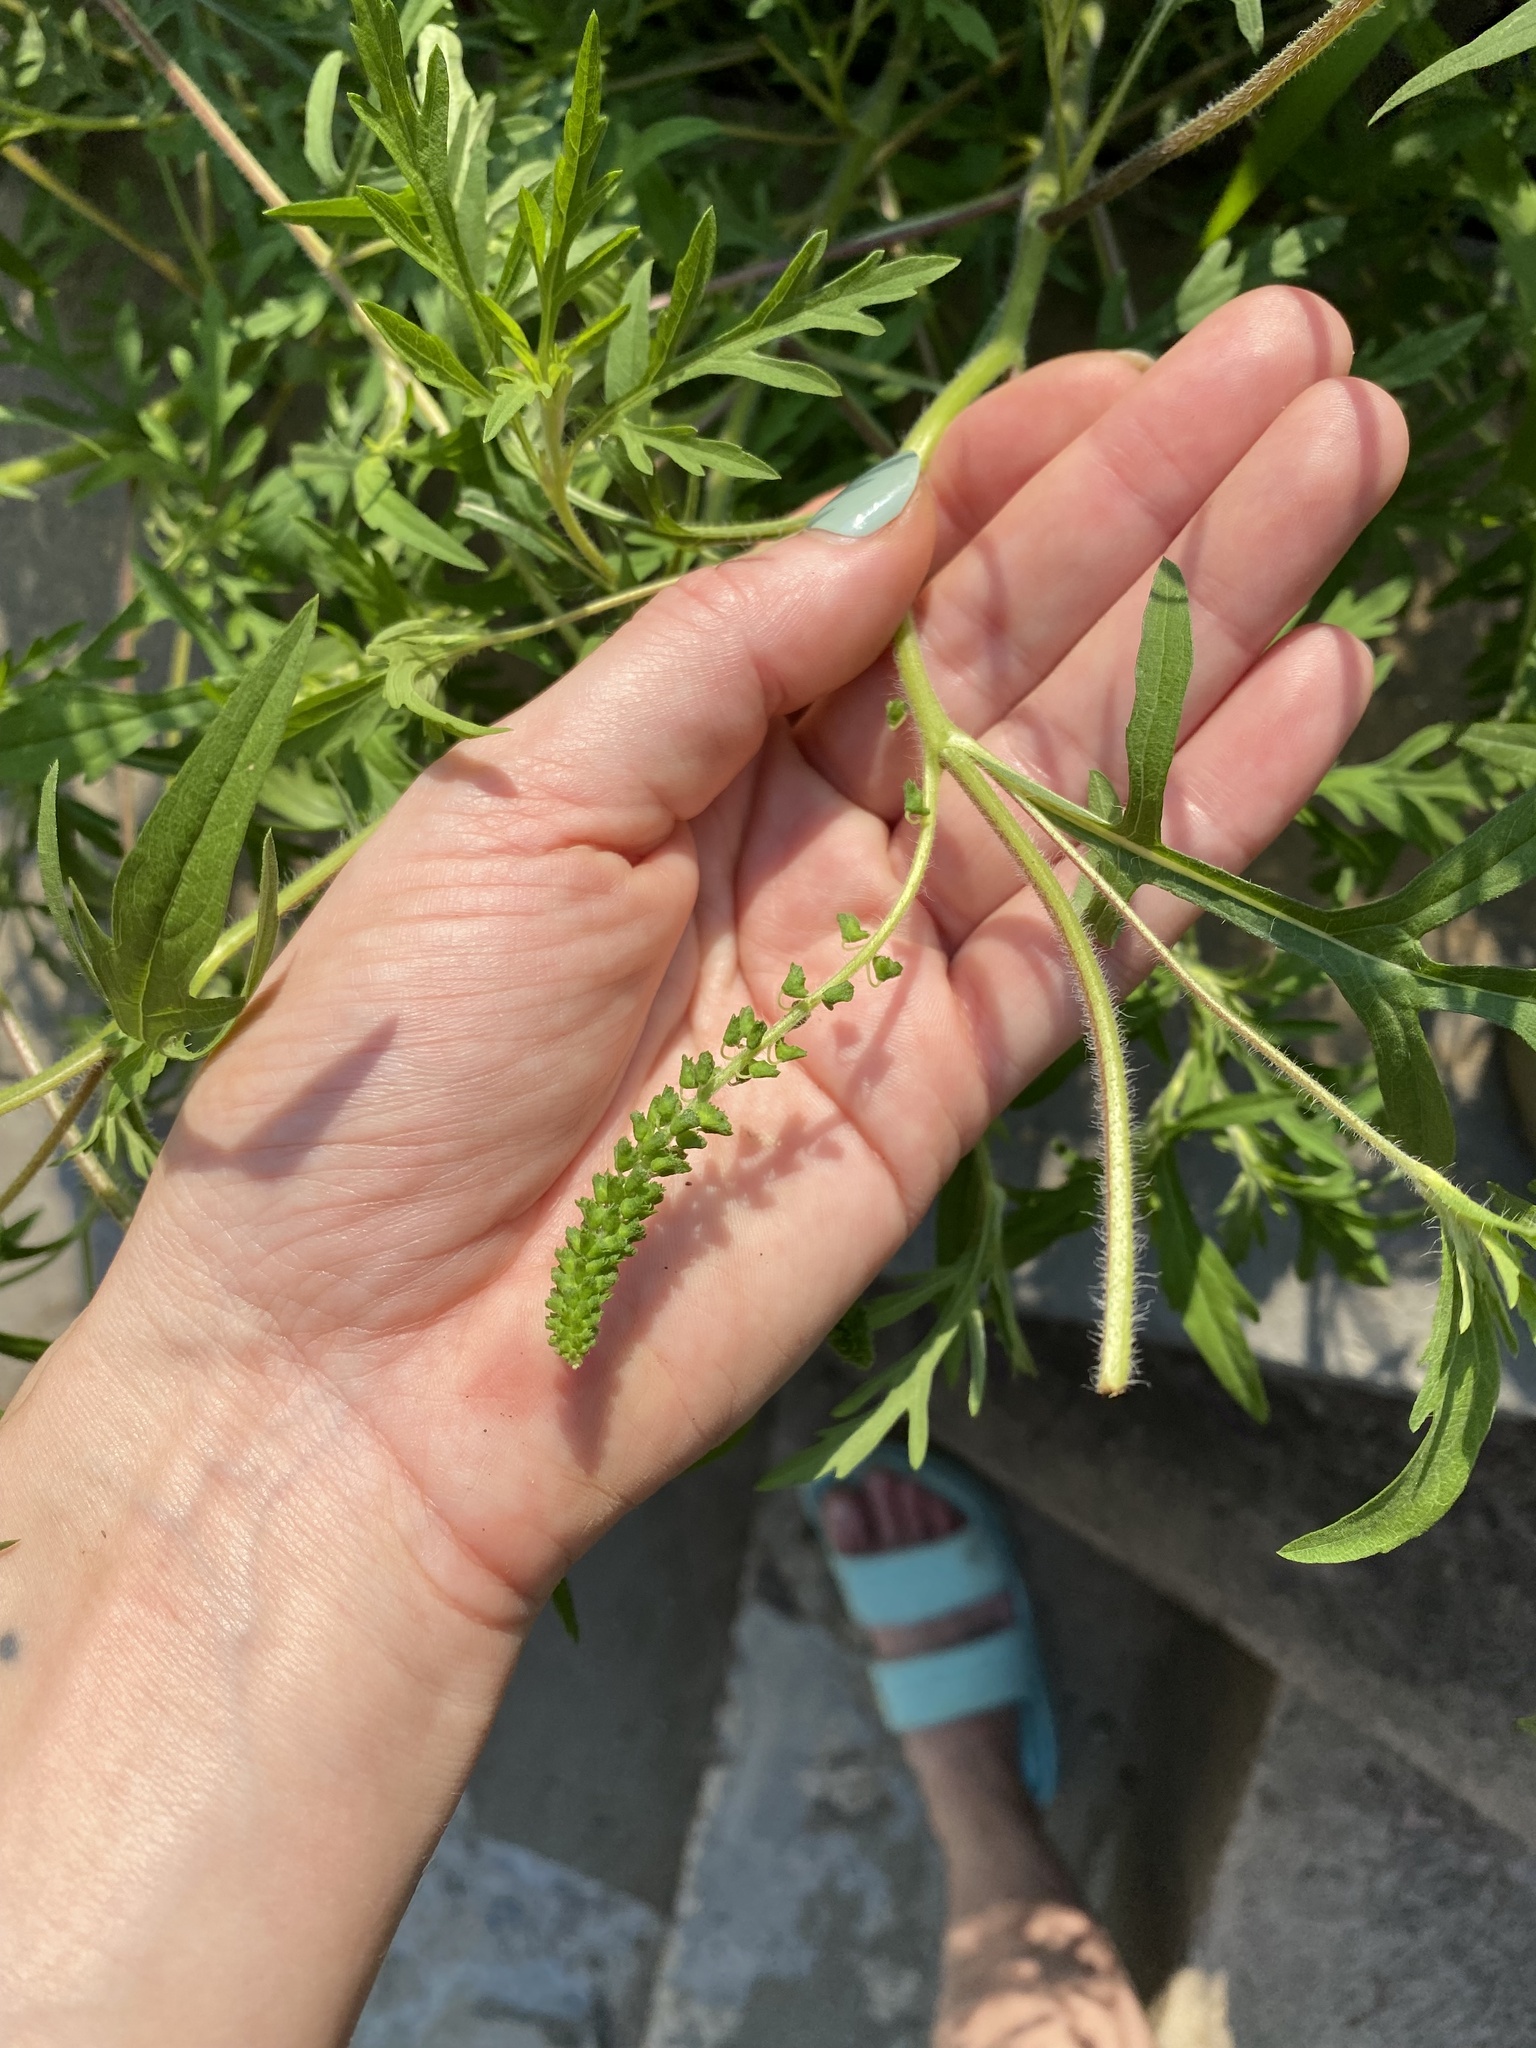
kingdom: Plantae
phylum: Tracheophyta
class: Magnoliopsida
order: Asterales
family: Asteraceae
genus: Ambrosia
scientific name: Ambrosia artemisiifolia
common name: Annual ragweed
